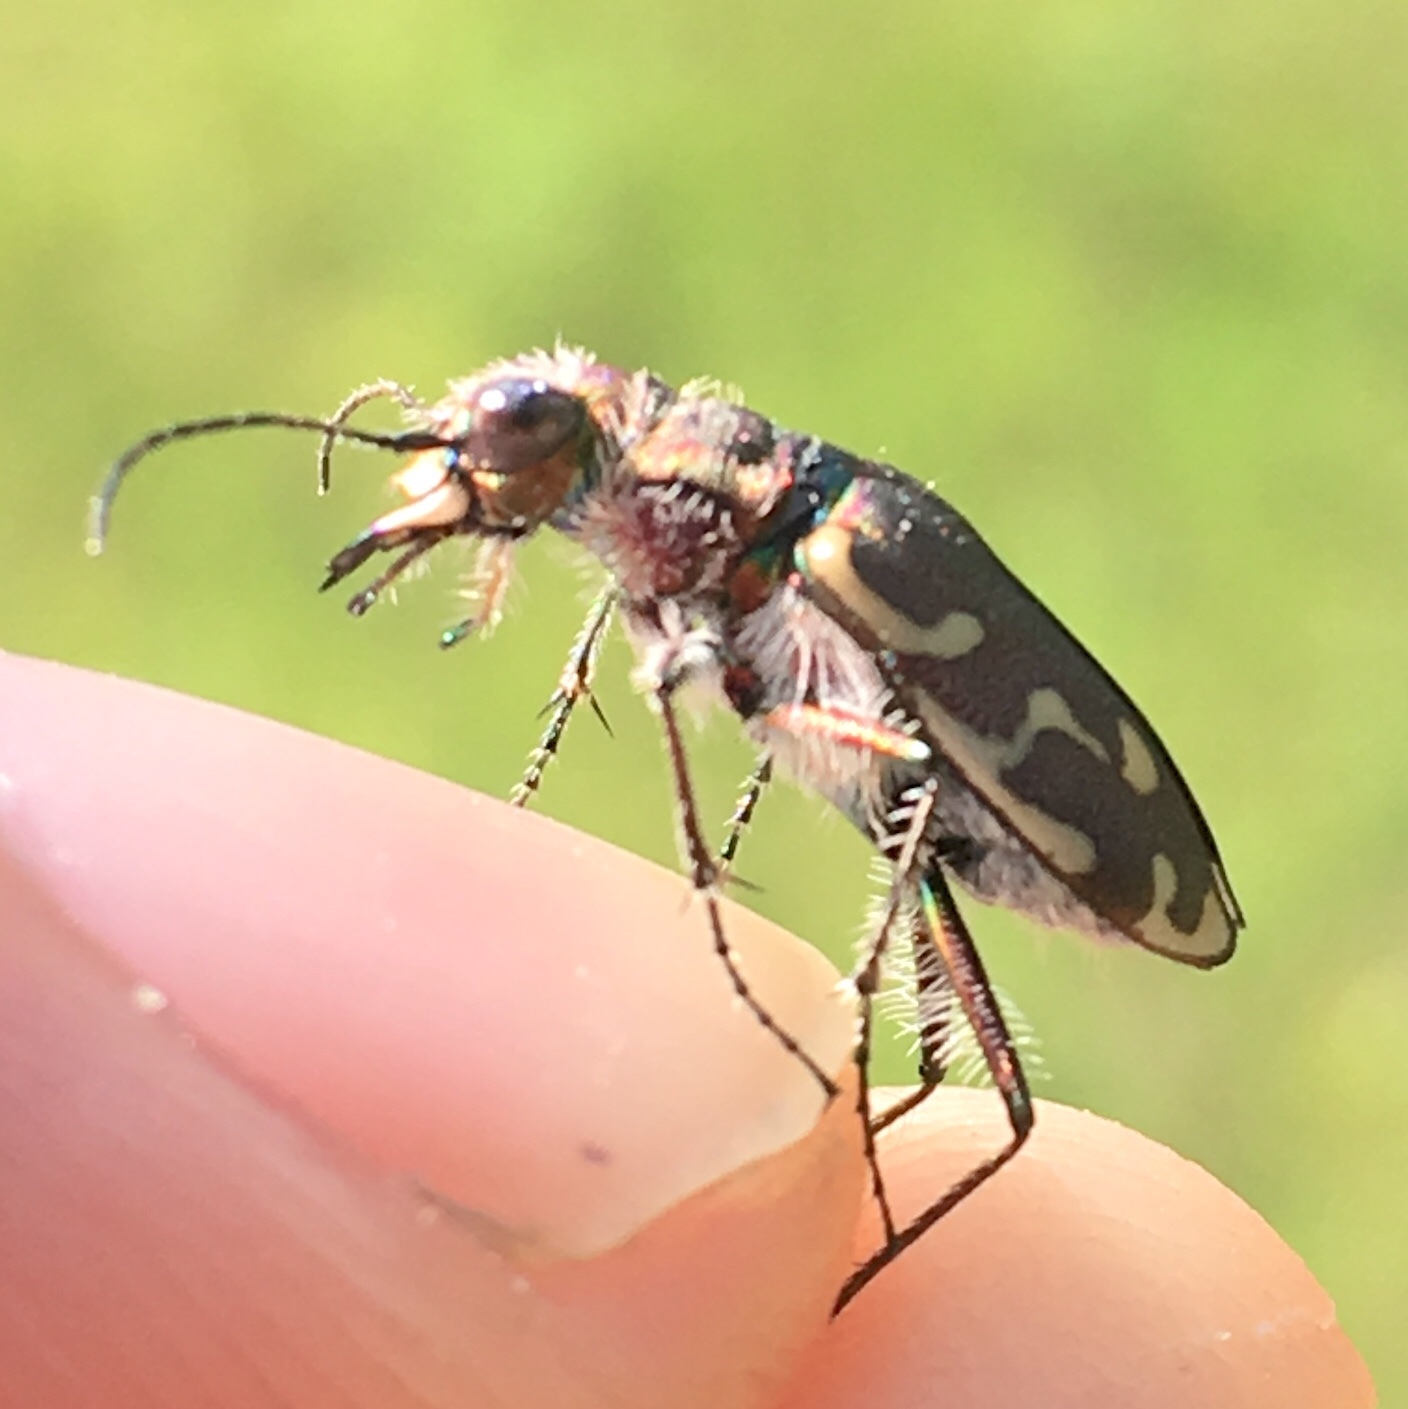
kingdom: Animalia
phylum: Arthropoda
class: Insecta
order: Coleoptera
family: Carabidae
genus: Cicindela
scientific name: Cicindela repanda
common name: Bronzed tiger beetle
